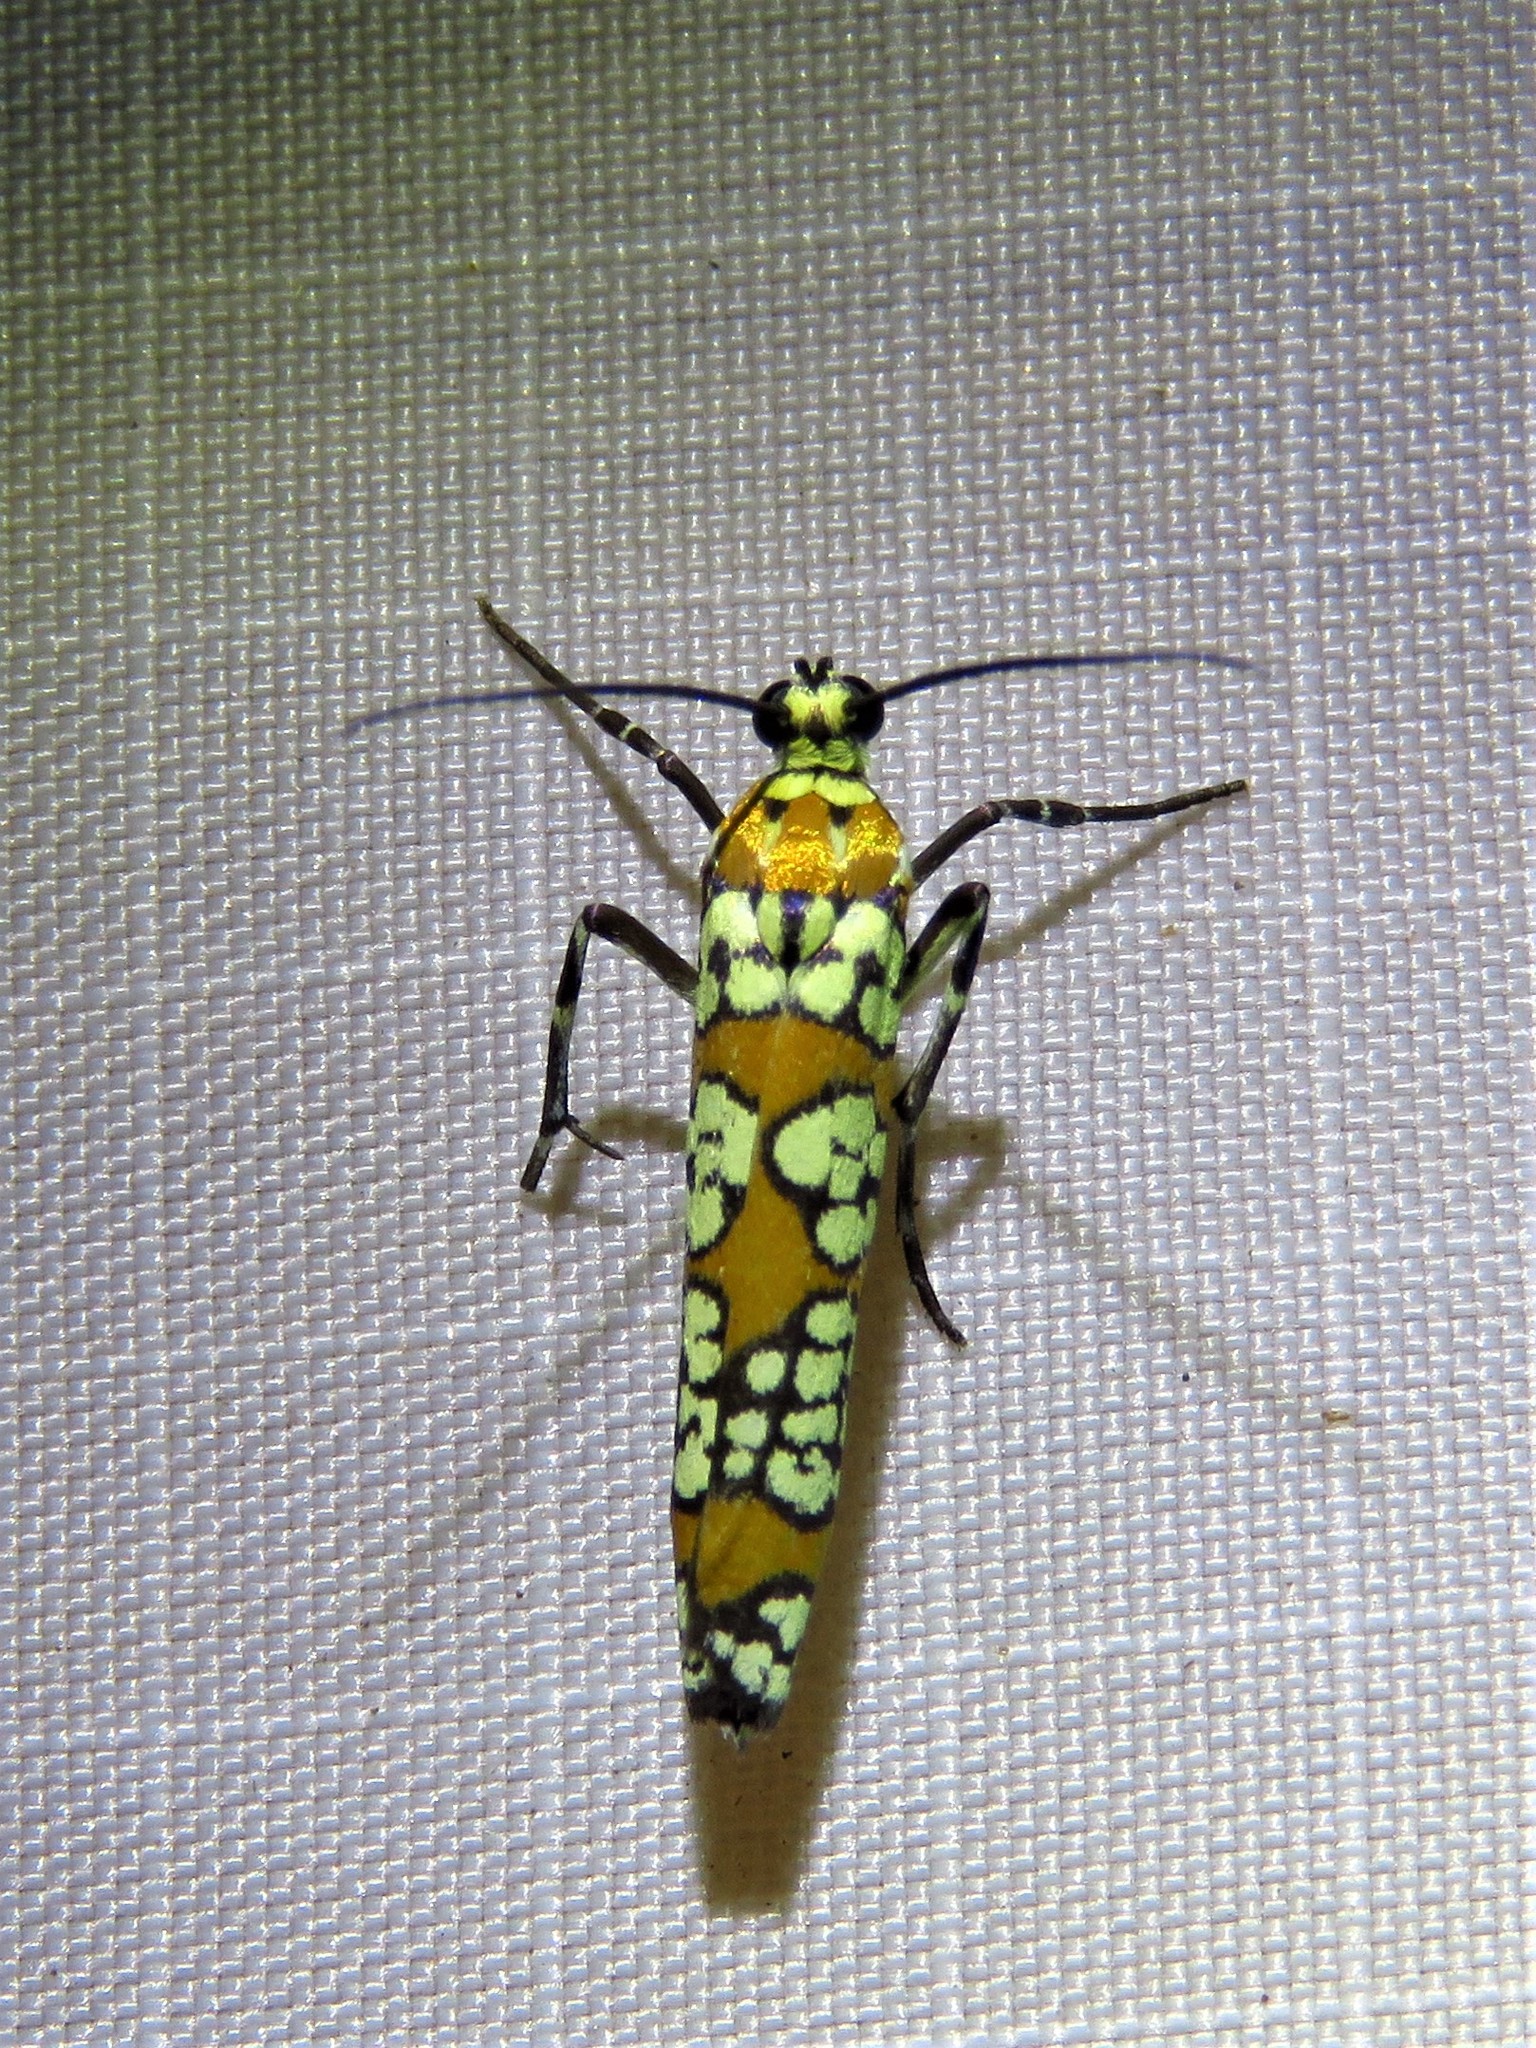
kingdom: Animalia
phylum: Arthropoda
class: Insecta
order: Lepidoptera
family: Attevidae
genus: Atteva
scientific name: Atteva punctella
